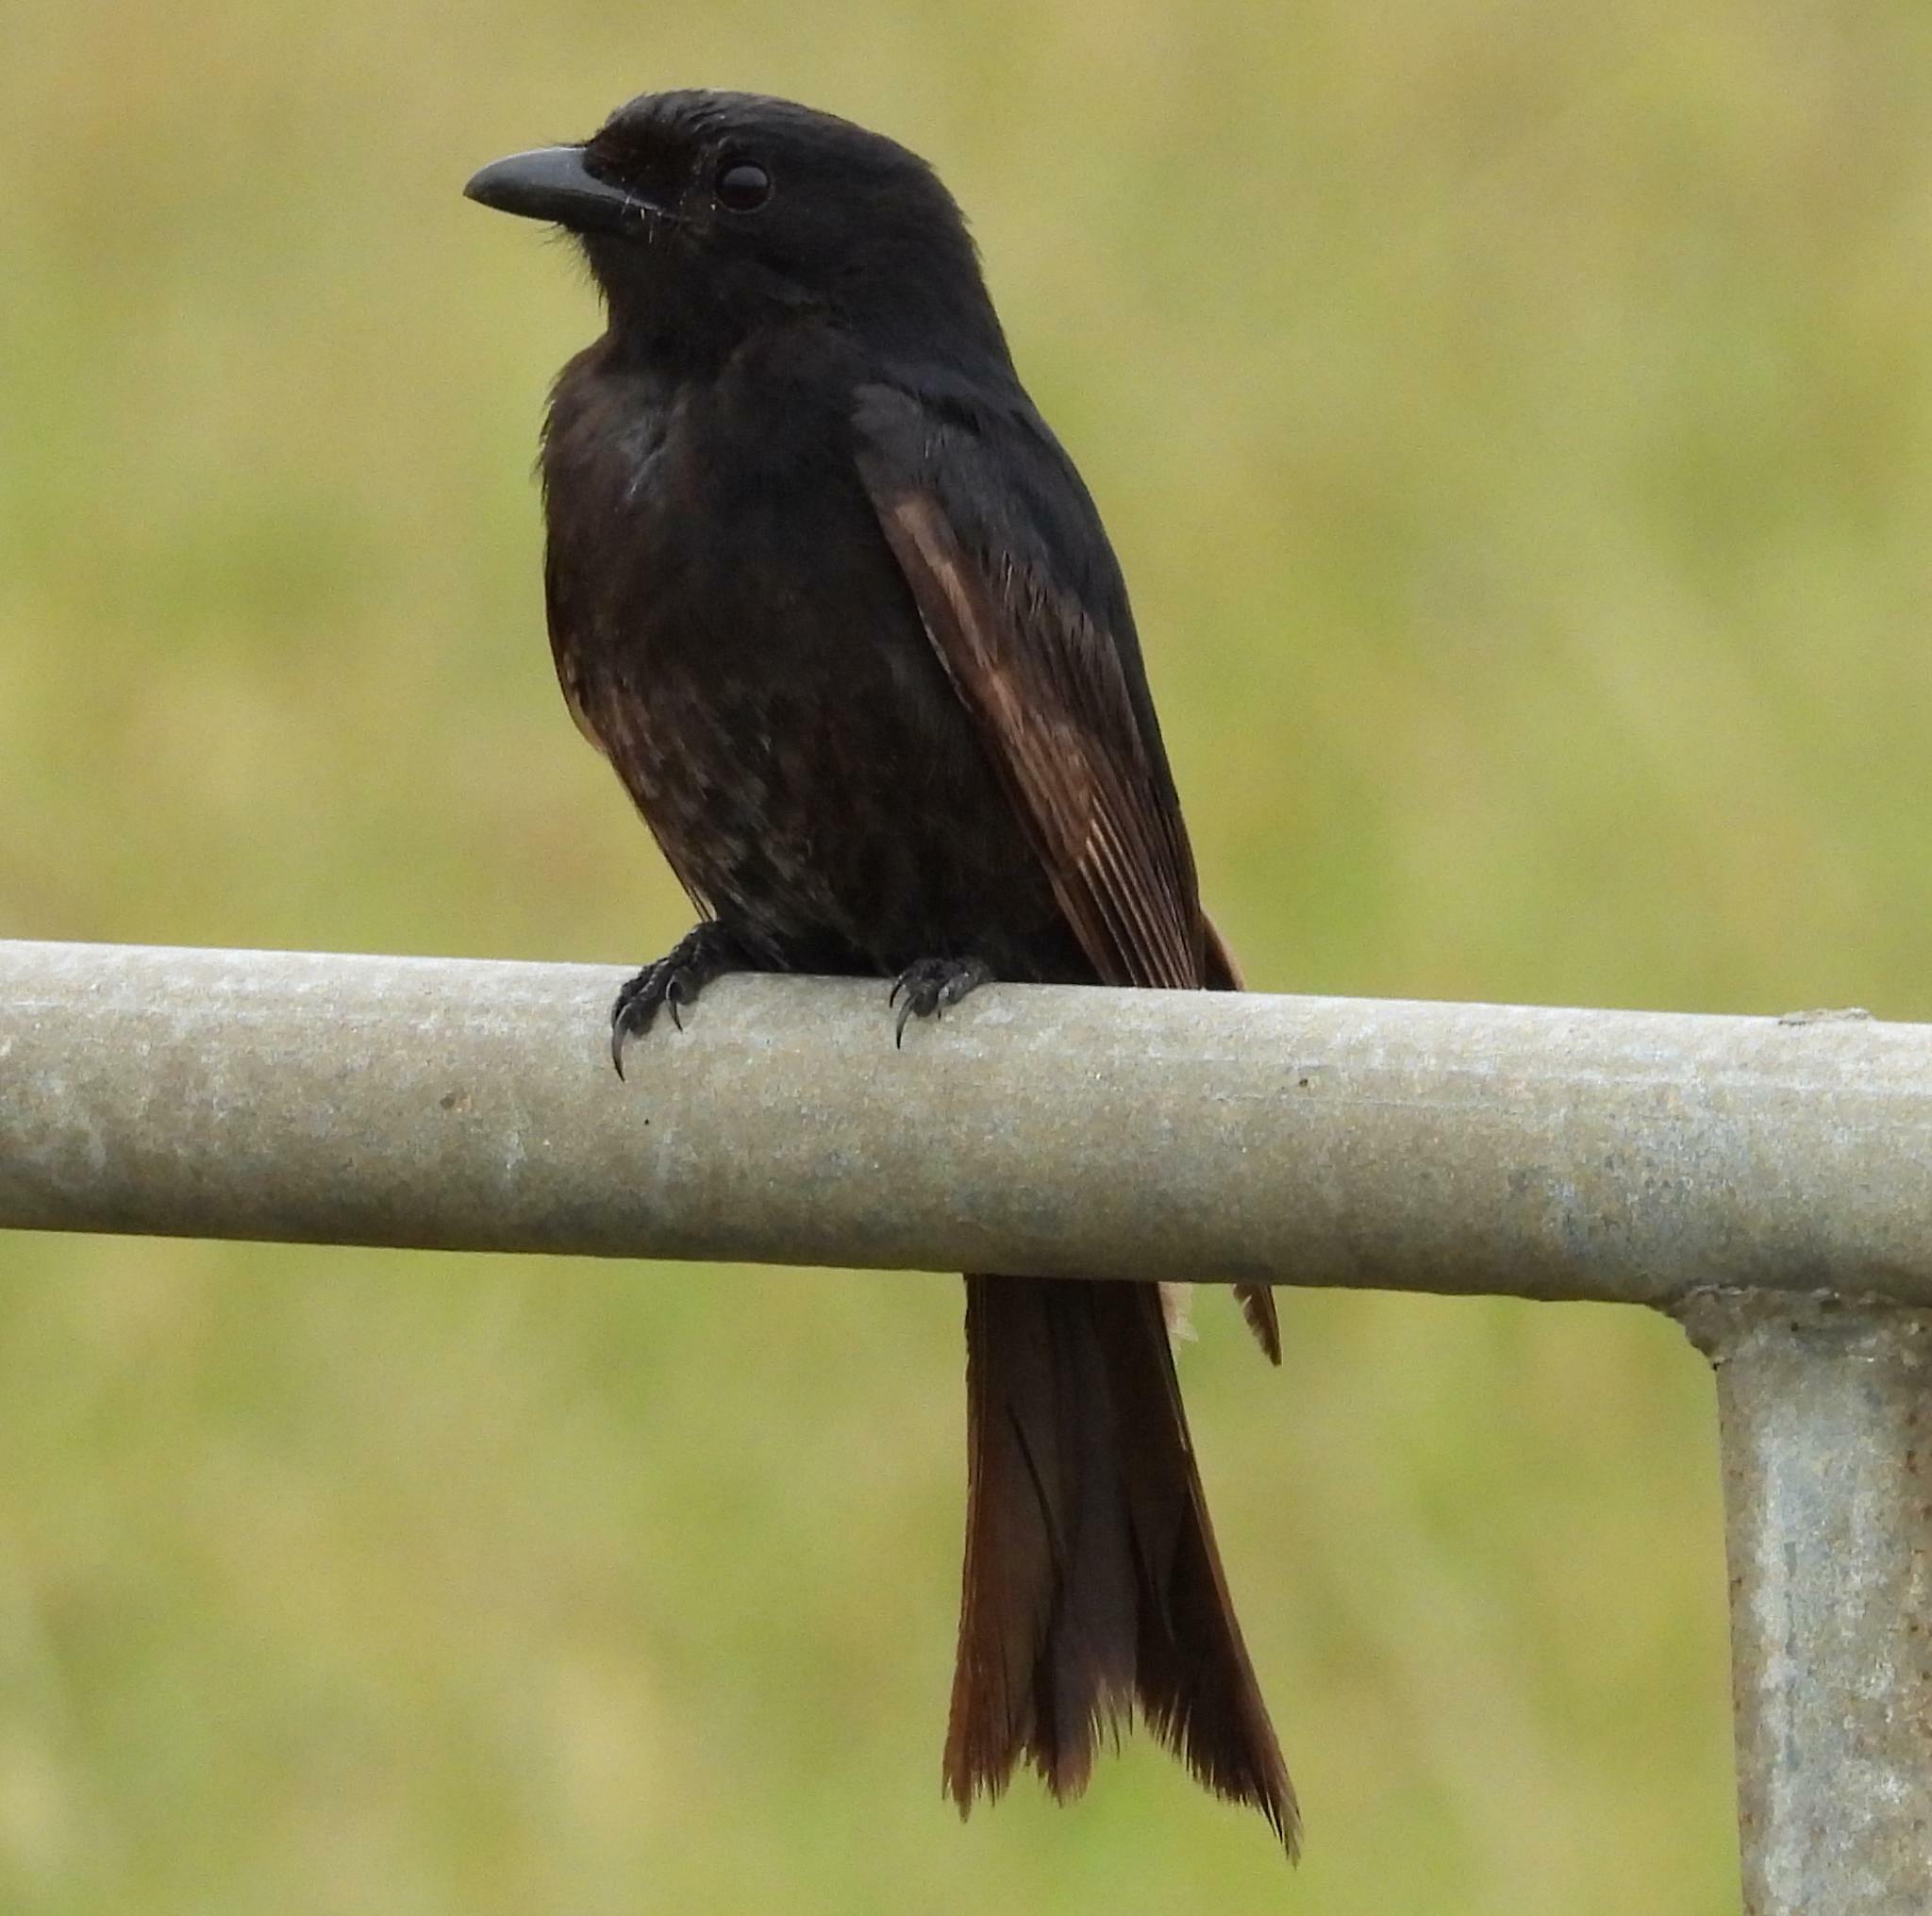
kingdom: Animalia
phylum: Chordata
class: Aves
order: Passeriformes
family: Dicruridae
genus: Dicrurus
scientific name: Dicrurus adsimilis
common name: Fork-tailed drongo
